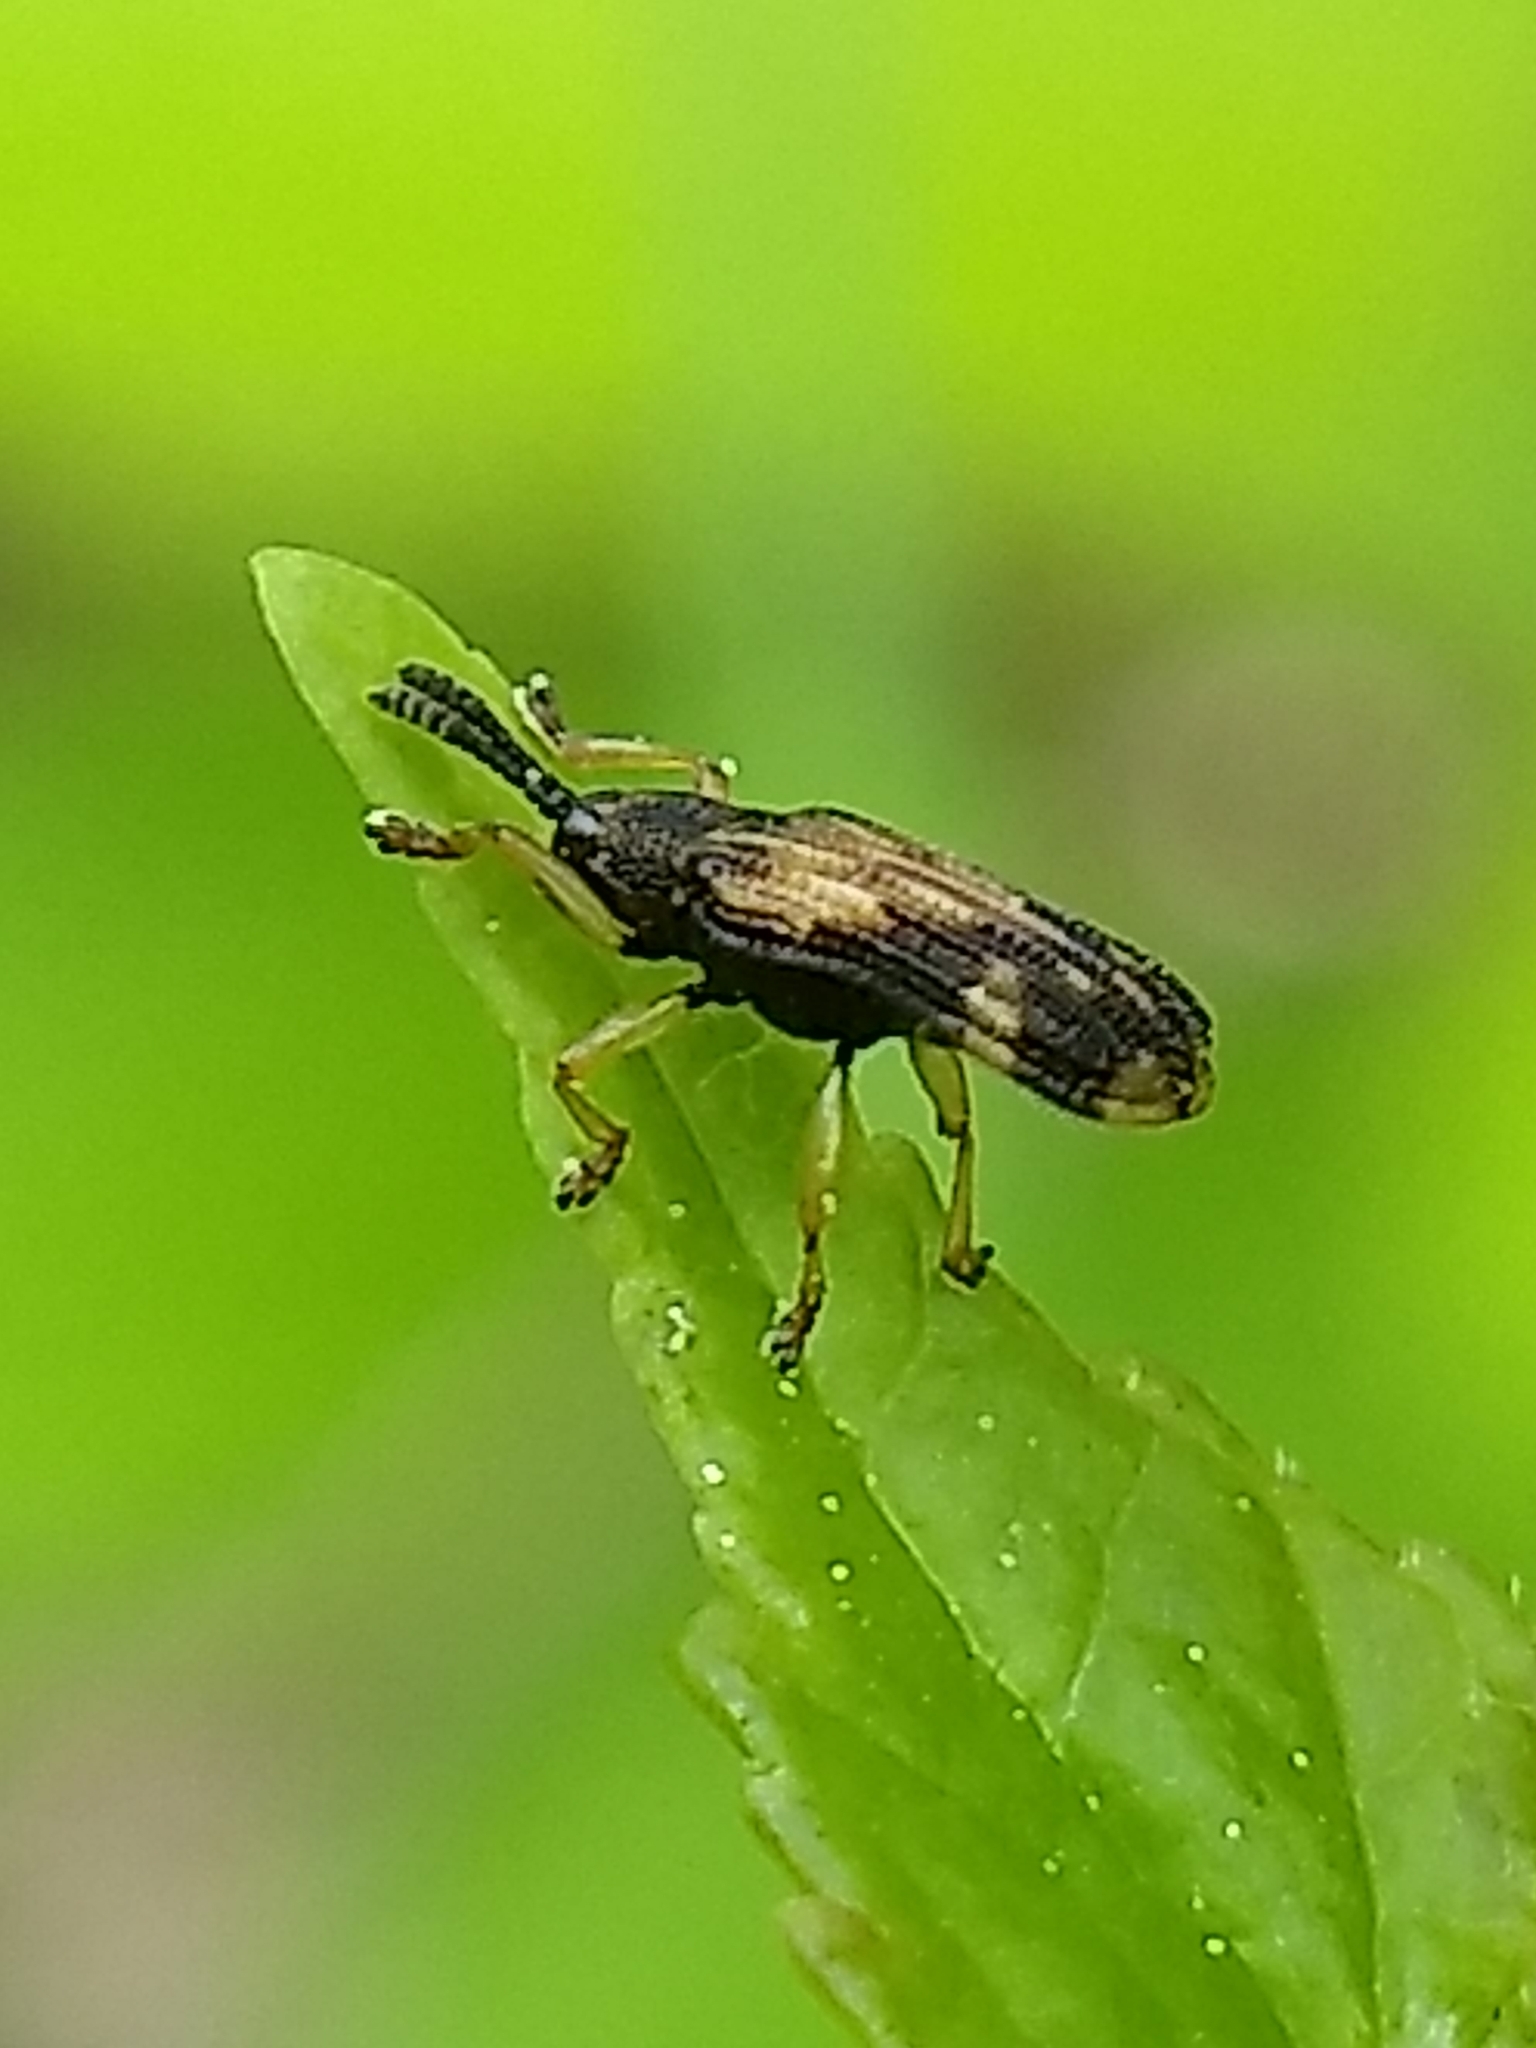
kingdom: Animalia
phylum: Arthropoda
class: Insecta
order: Coleoptera
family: Chrysomelidae
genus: Sumitrosis
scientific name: Sumitrosis inaequalis
